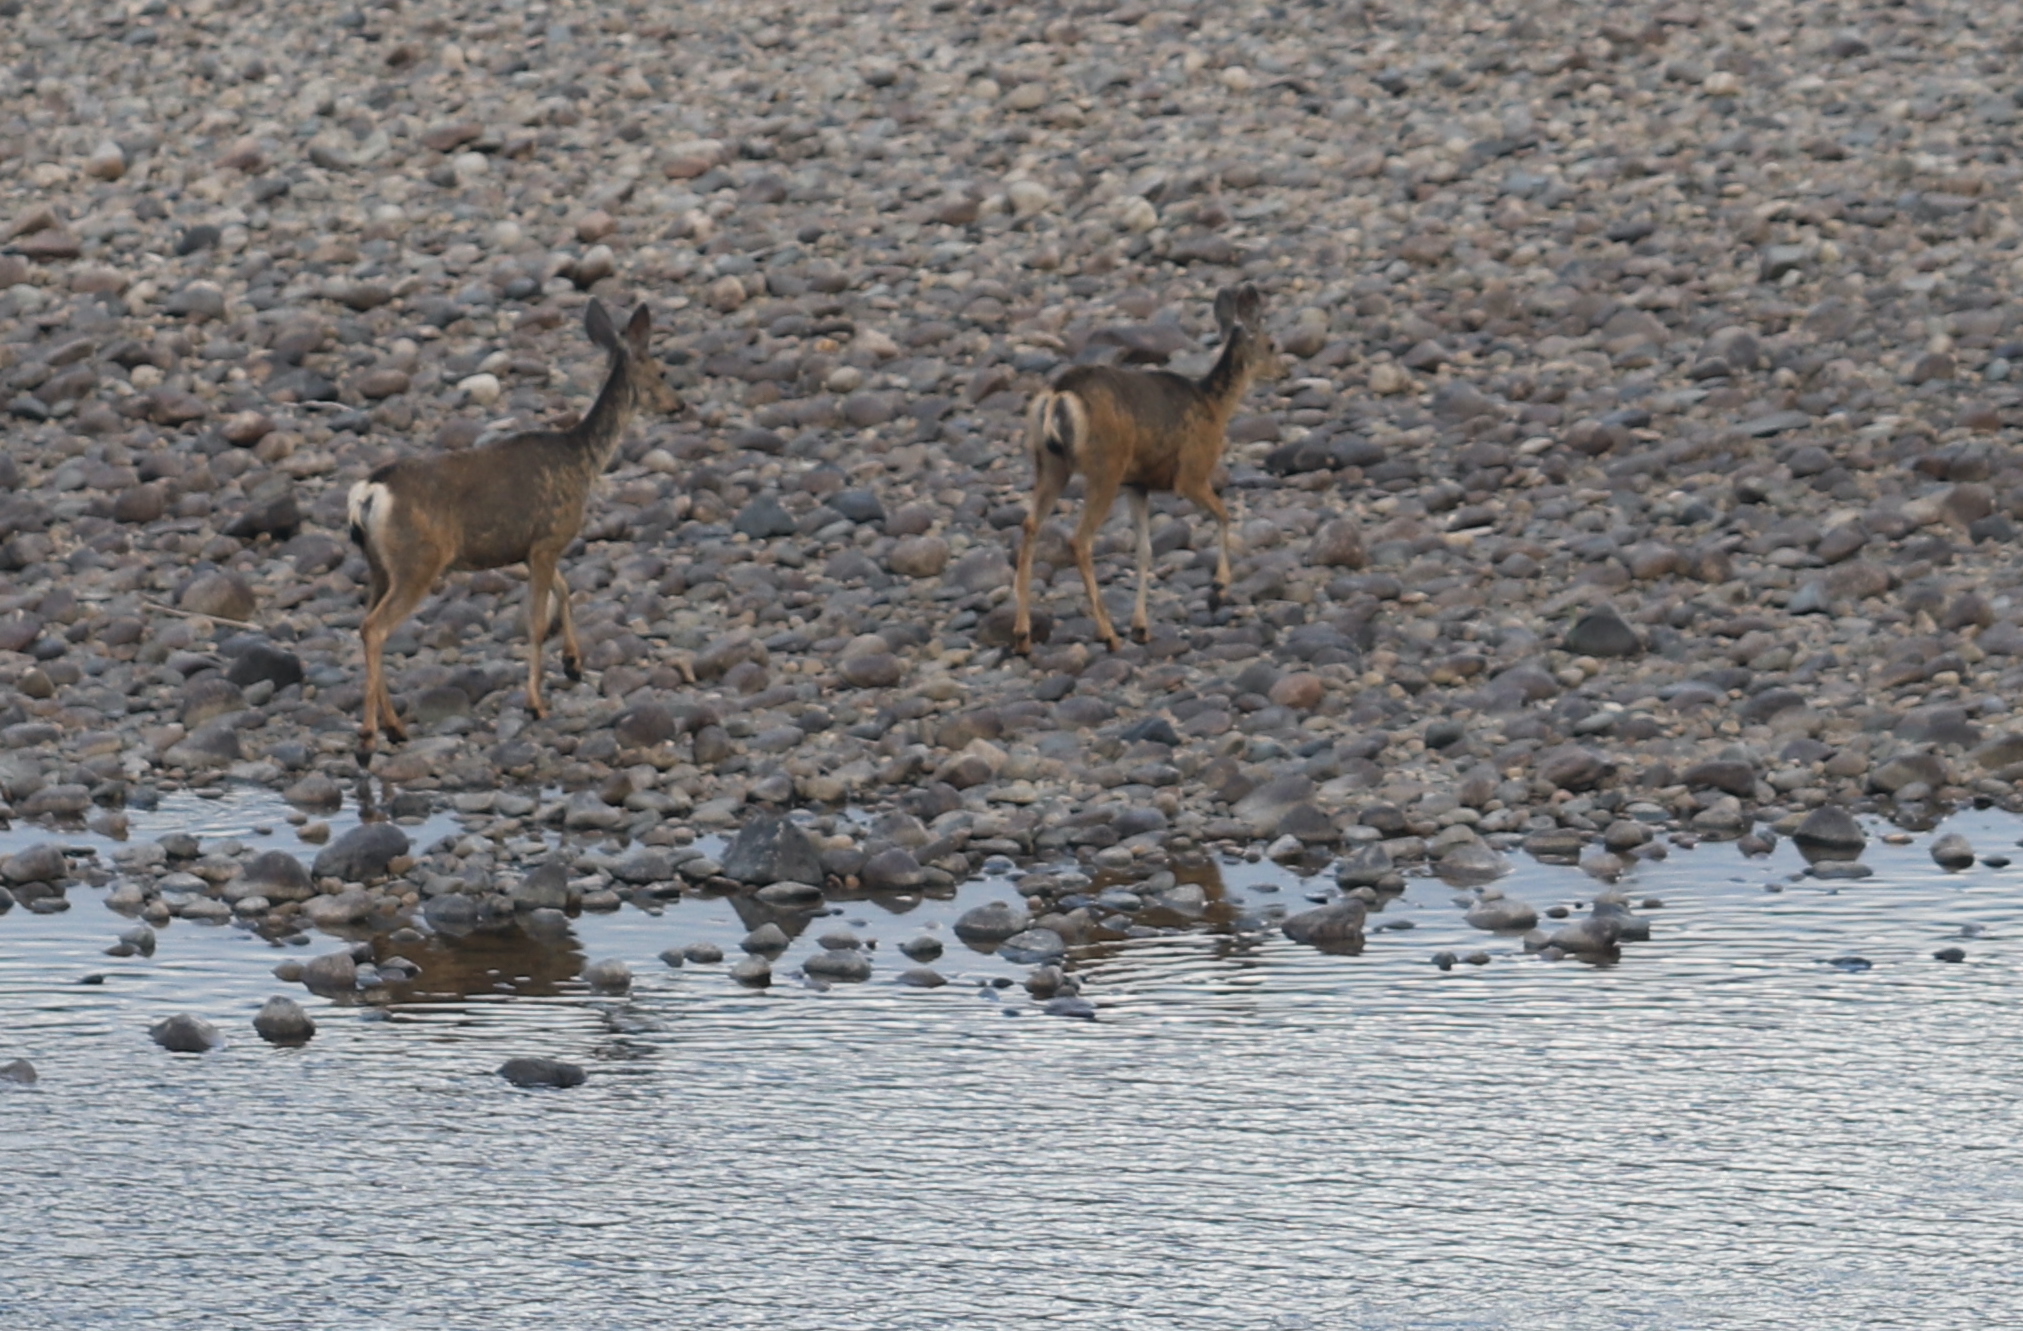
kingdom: Animalia
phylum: Chordata
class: Mammalia
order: Artiodactyla
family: Cervidae
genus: Odocoileus
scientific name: Odocoileus hemionus
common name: Mule deer
